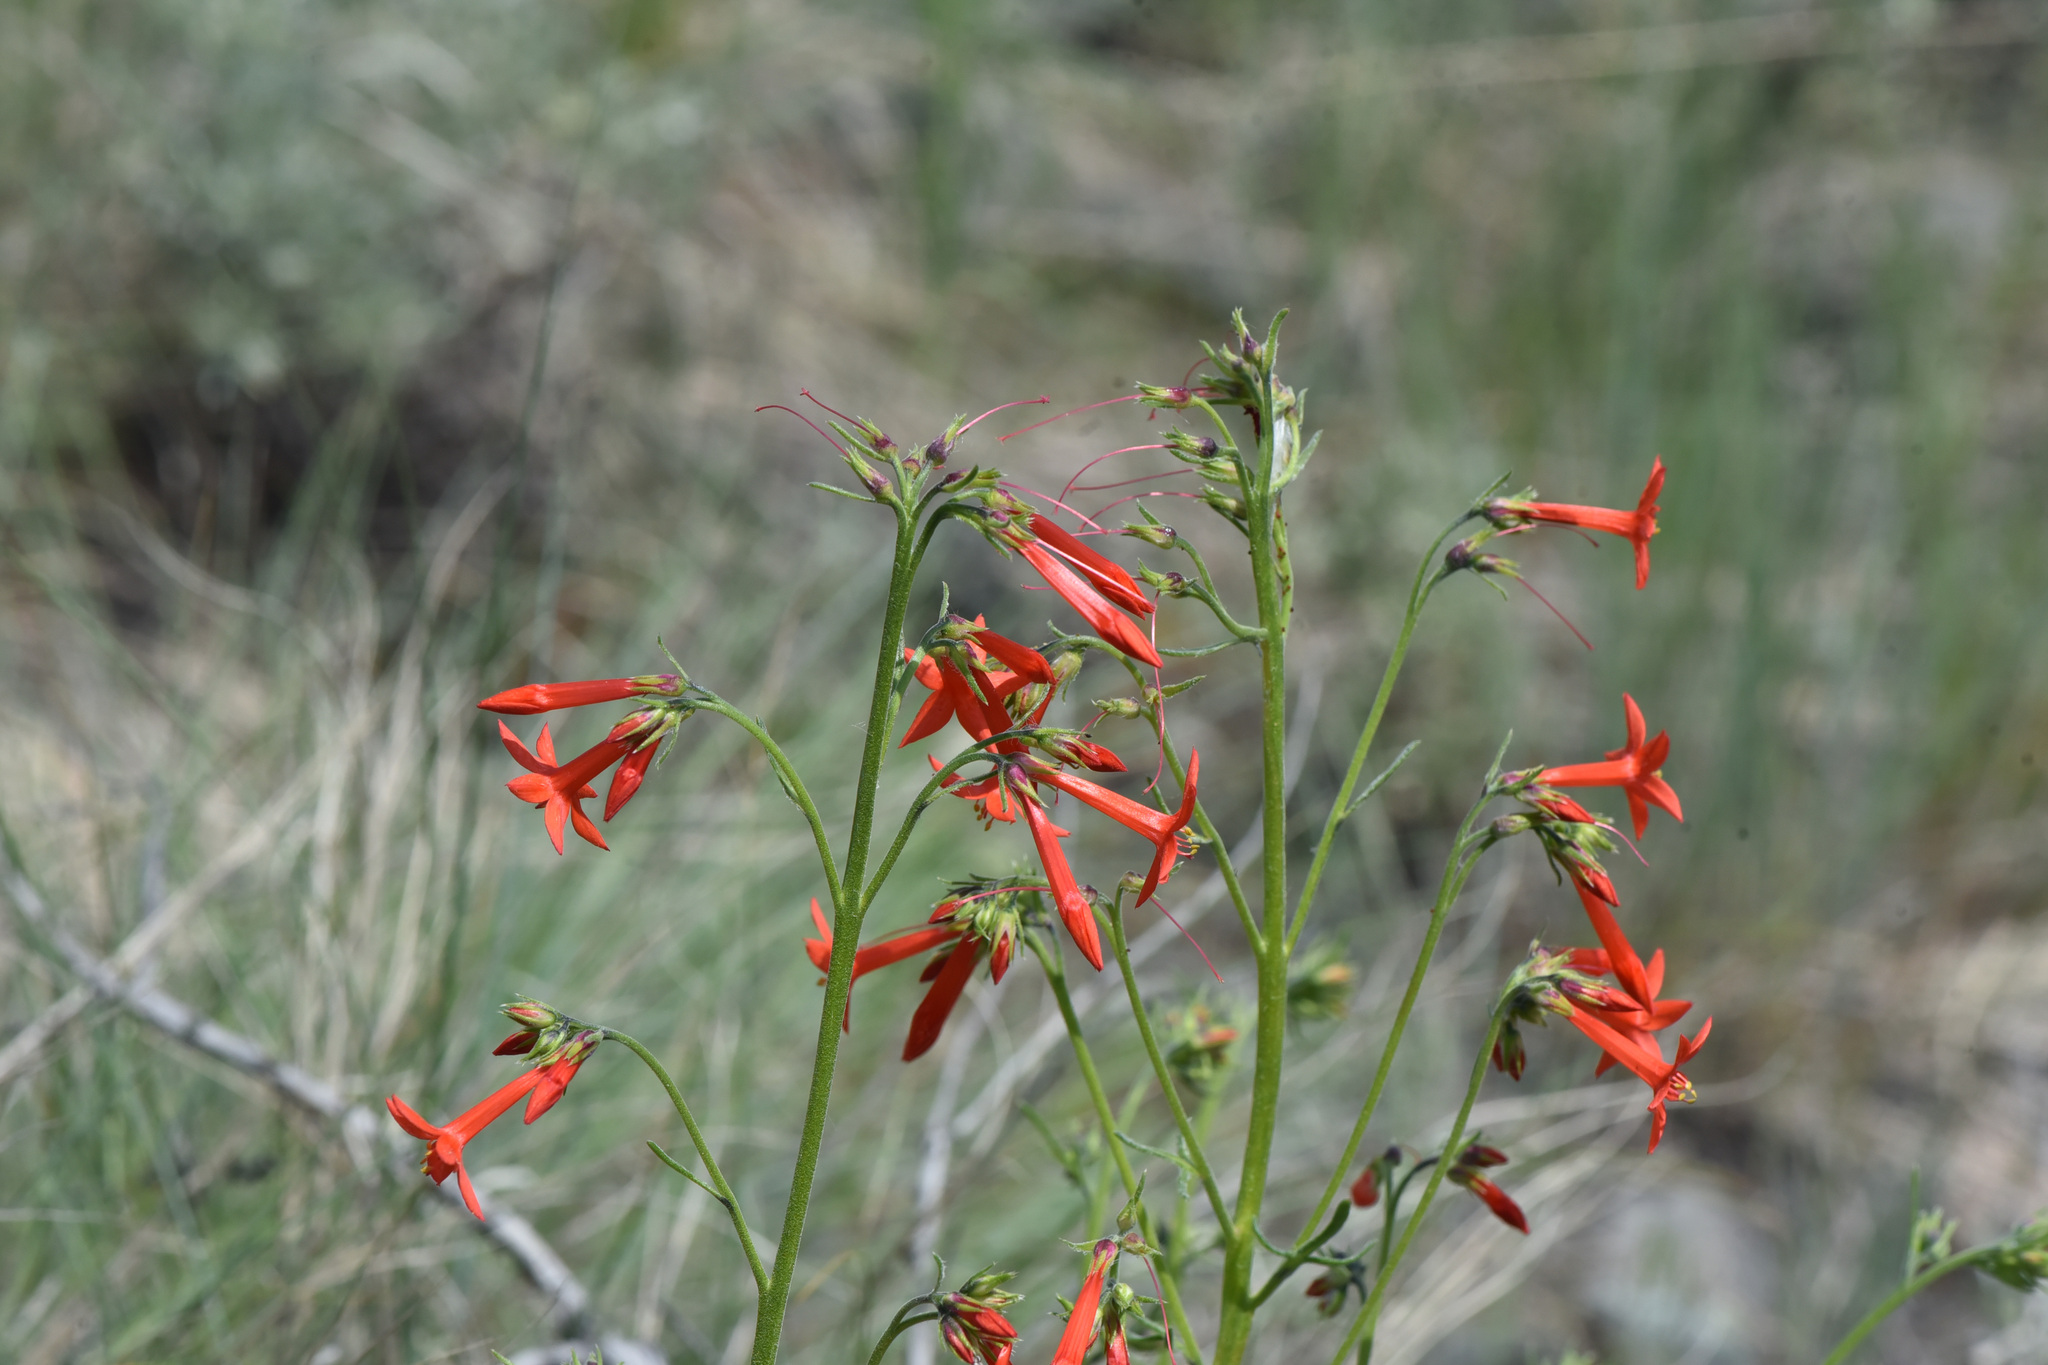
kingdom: Plantae
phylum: Tracheophyta
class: Magnoliopsida
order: Ericales
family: Polemoniaceae
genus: Ipomopsis
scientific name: Ipomopsis aggregata
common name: Scarlet gilia
